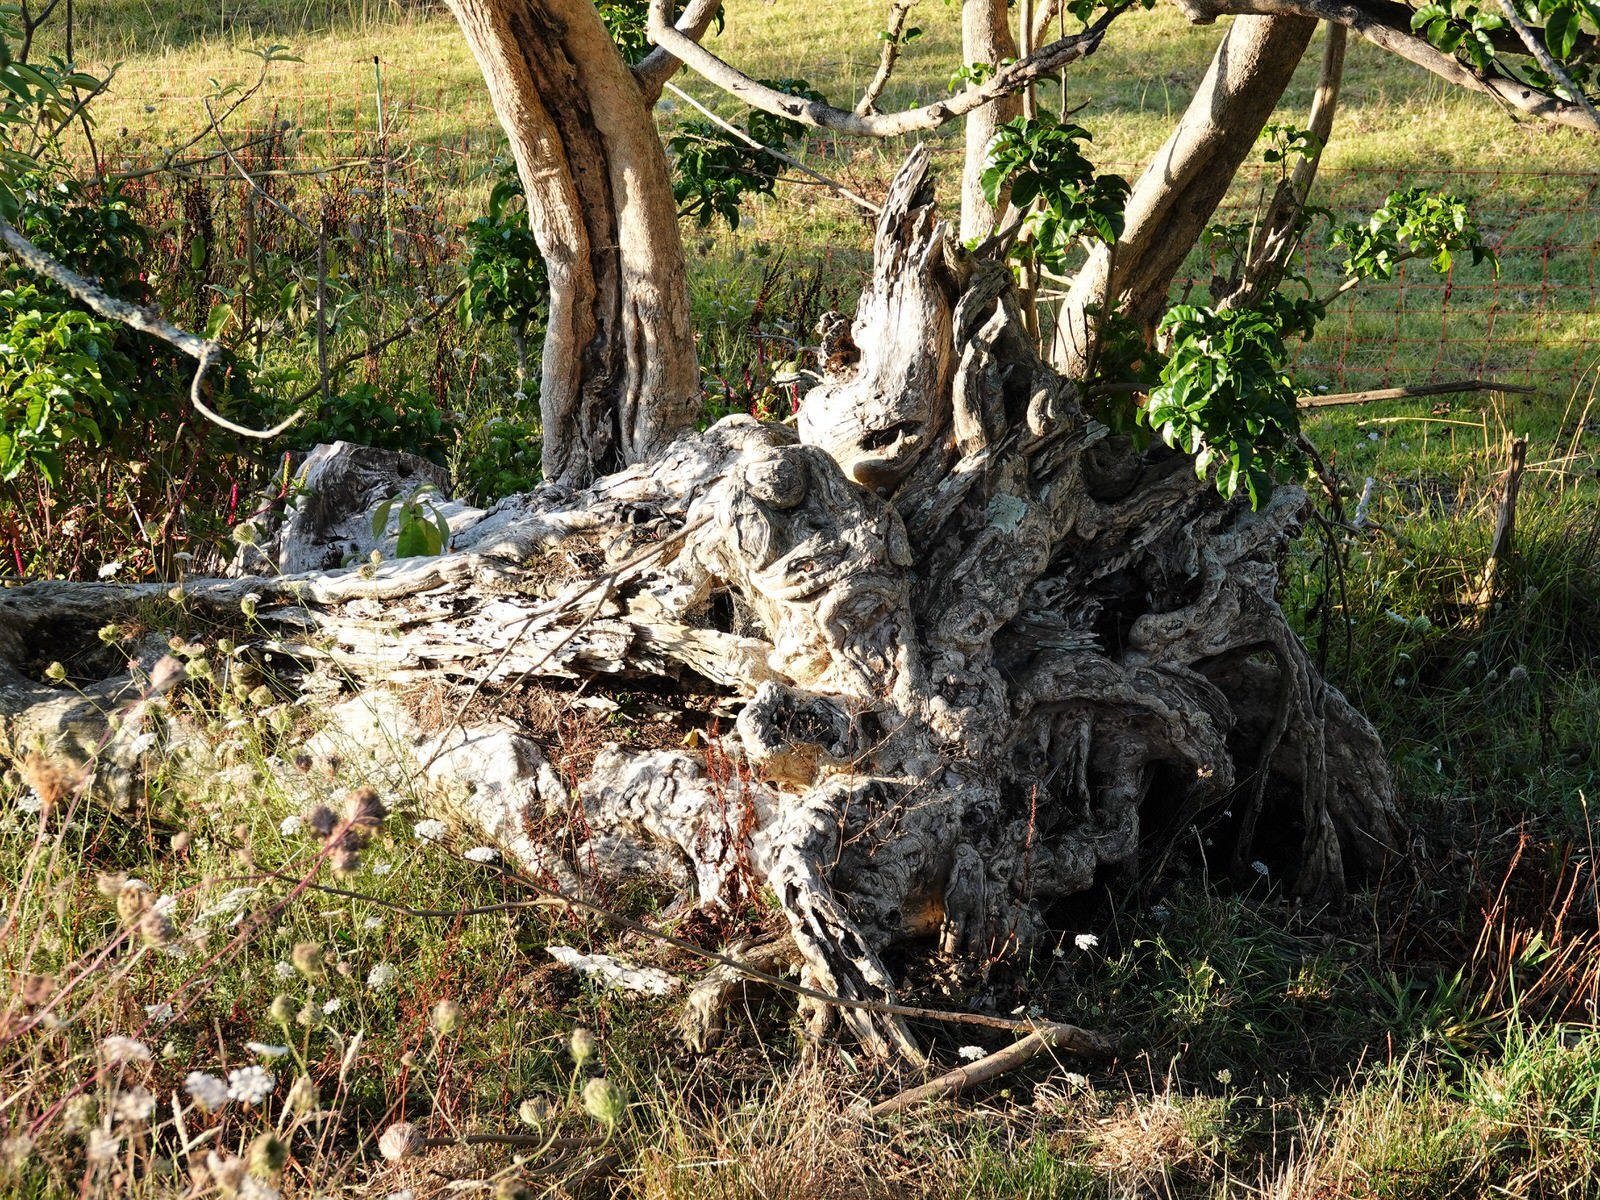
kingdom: Plantae
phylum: Tracheophyta
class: Magnoliopsida
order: Lamiales
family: Lamiaceae
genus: Vitex
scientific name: Vitex lucens
